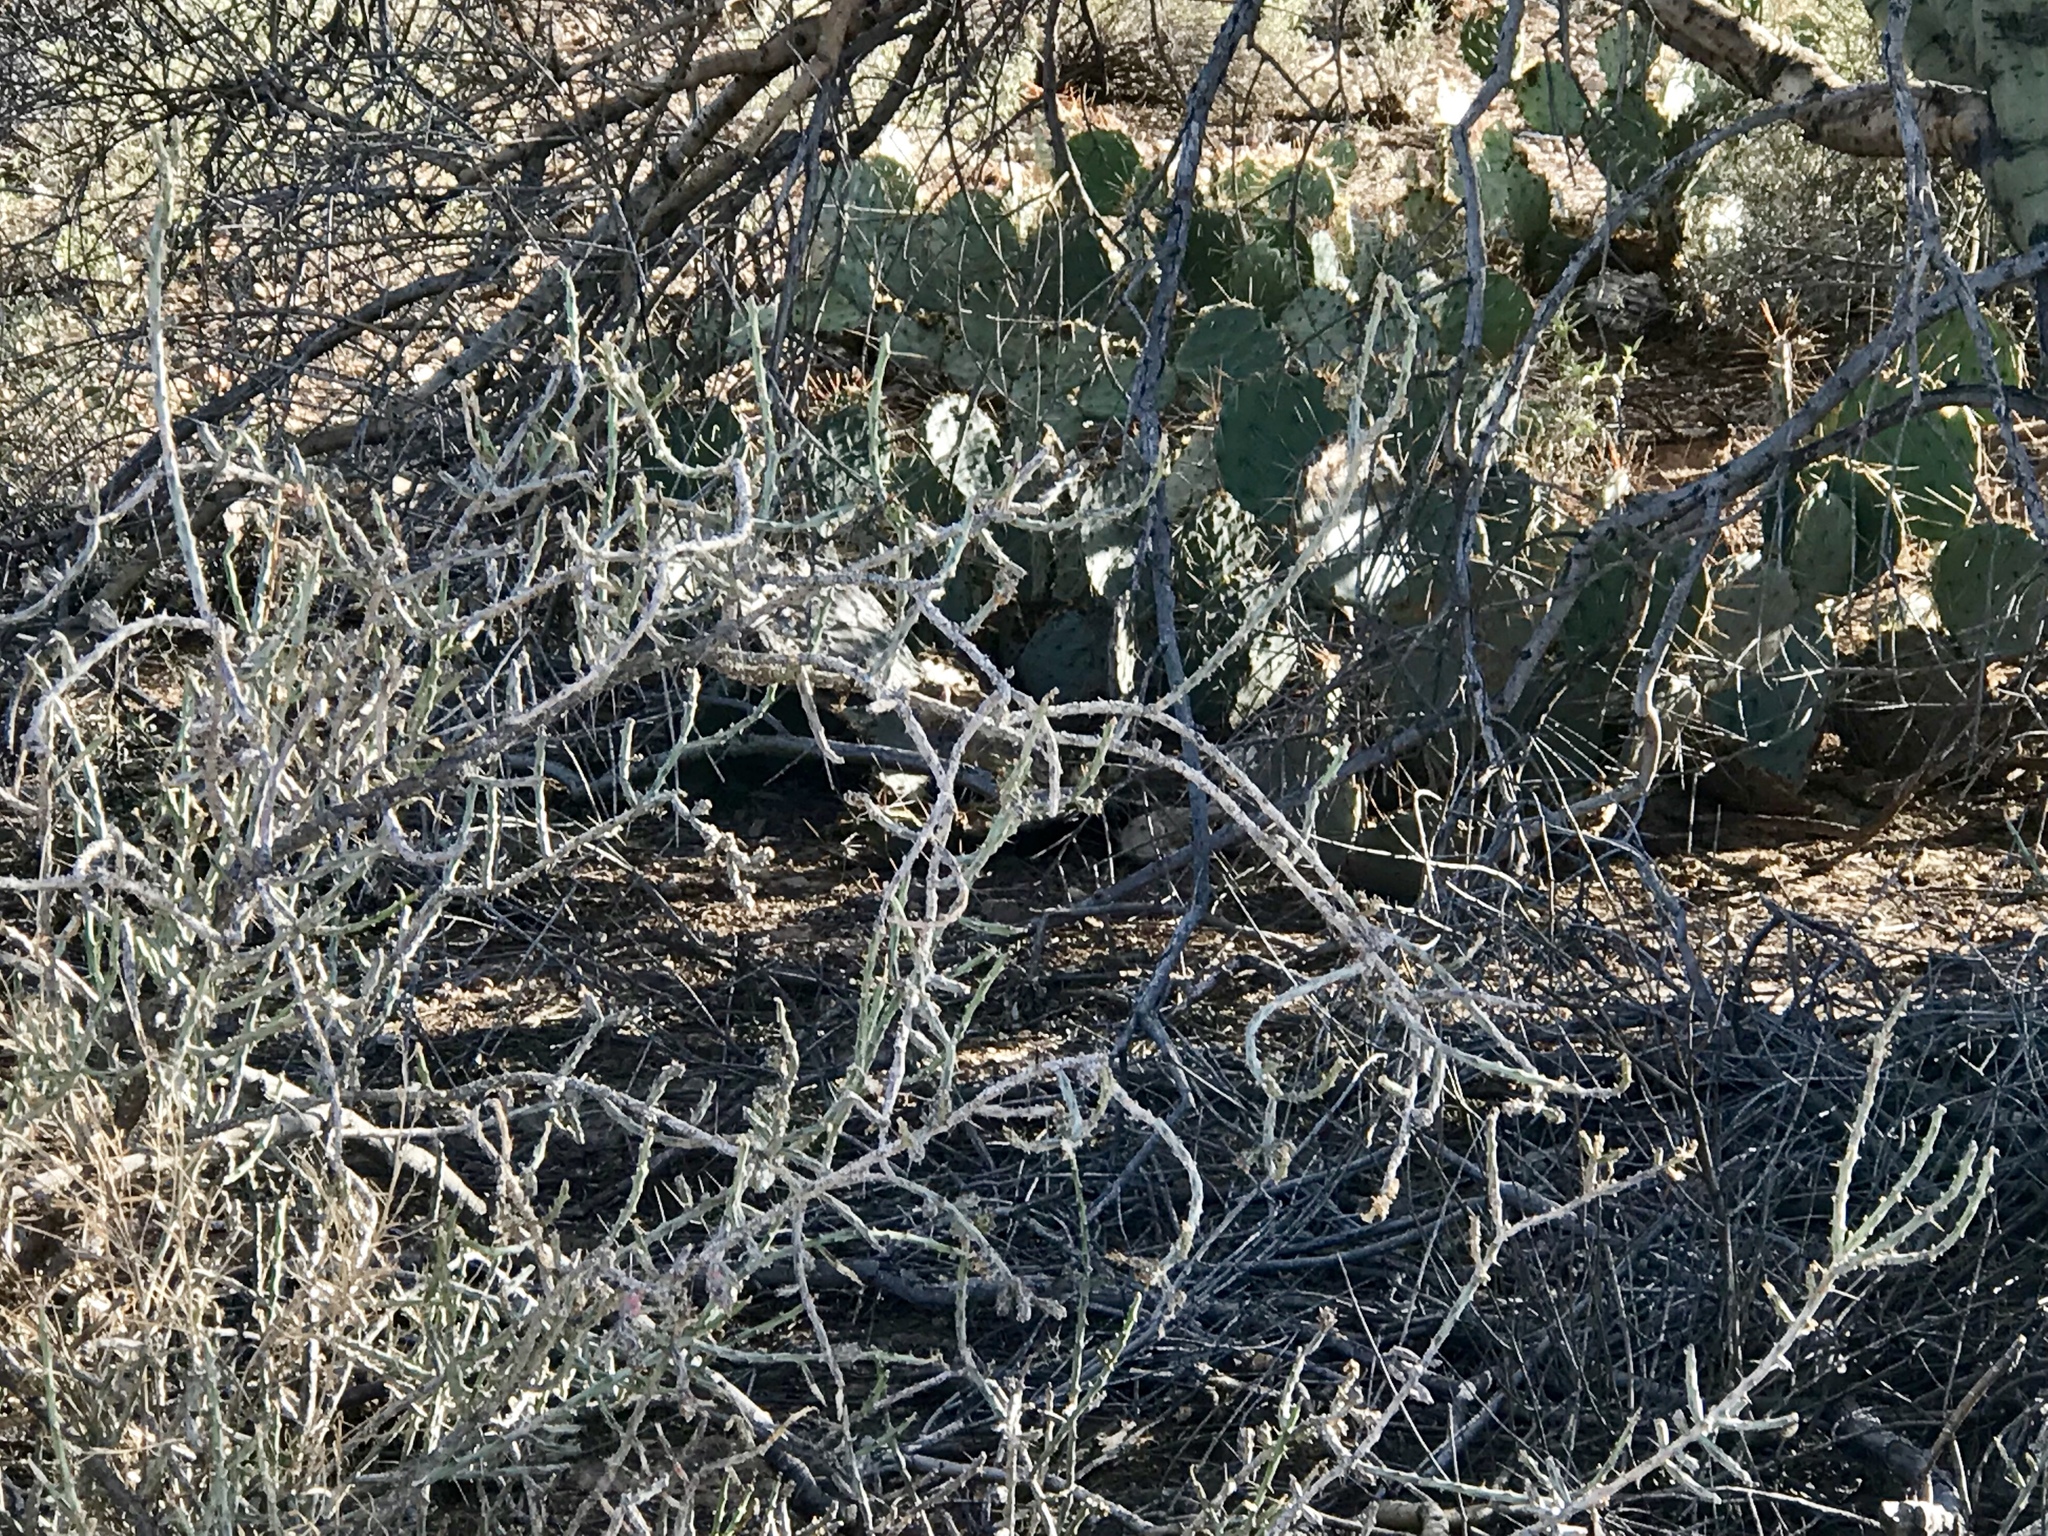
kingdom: Plantae
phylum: Tracheophyta
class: Magnoliopsida
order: Caryophyllales
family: Cactaceae
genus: Cylindropuntia
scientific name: Cylindropuntia leptocaulis
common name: Christmas cactus
